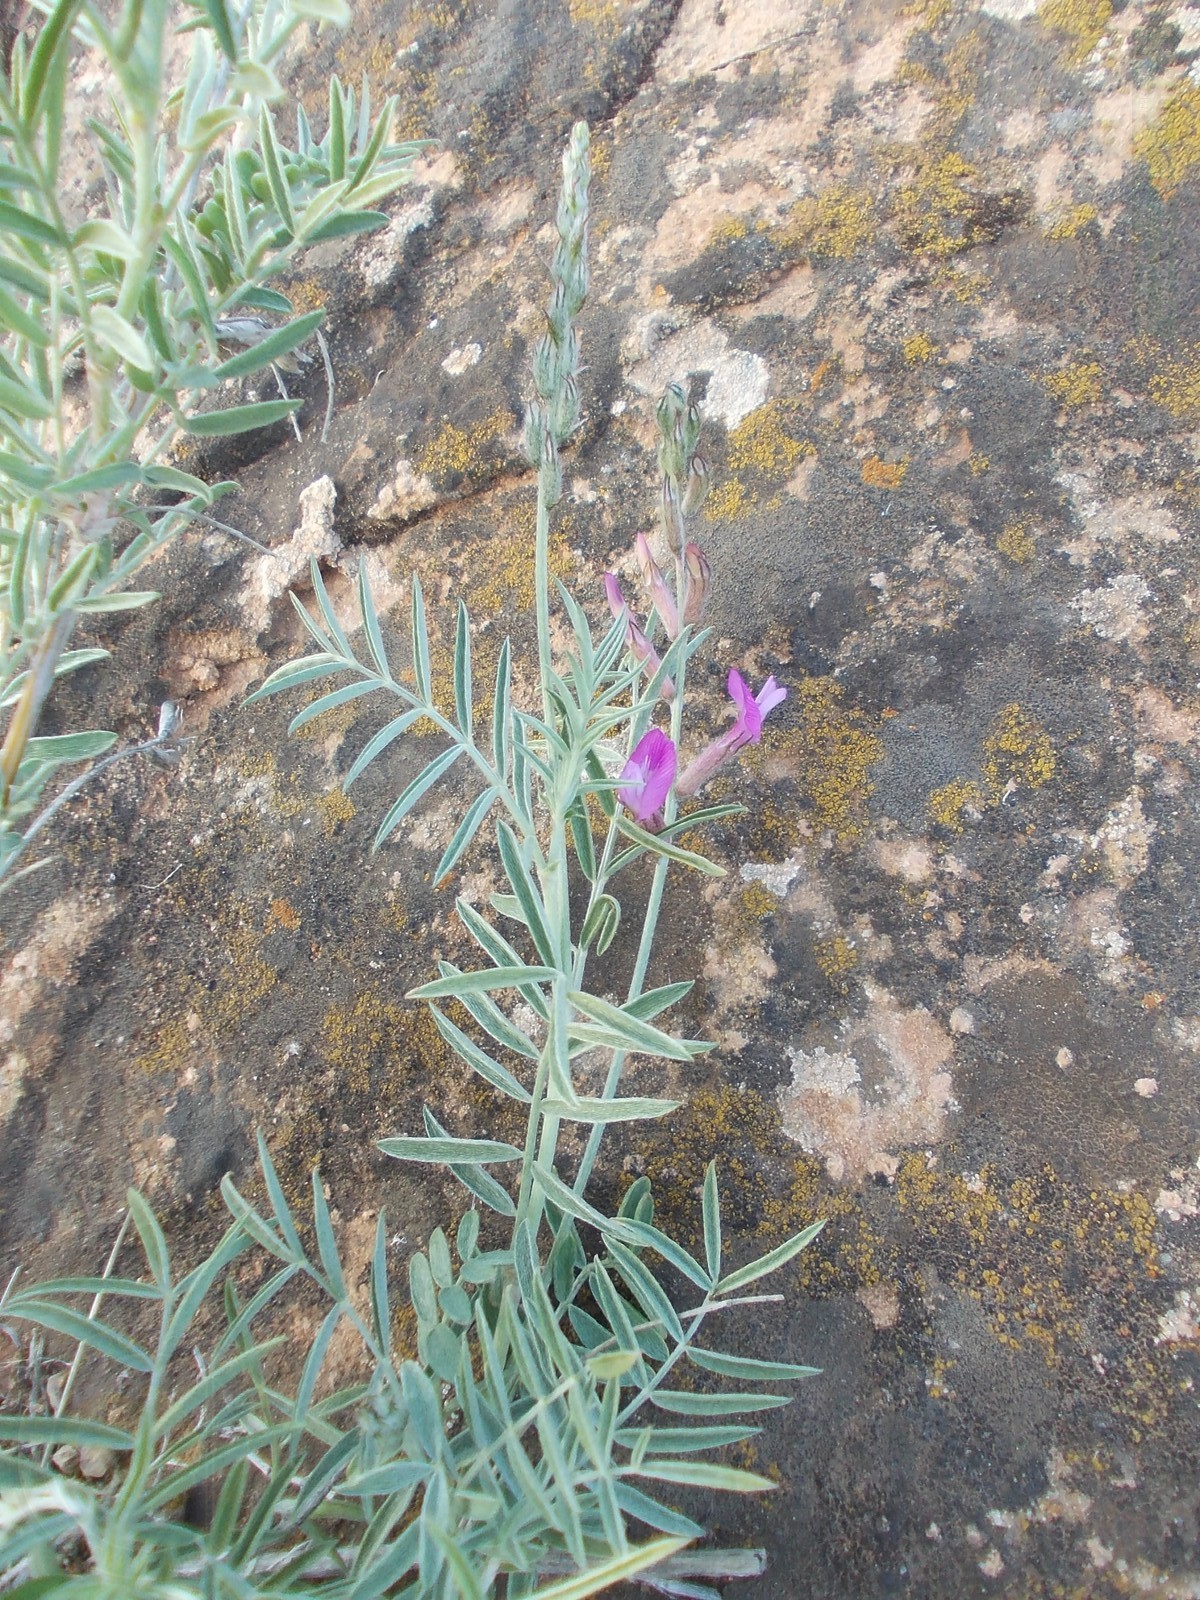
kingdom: Plantae
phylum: Tracheophyta
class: Magnoliopsida
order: Fabales
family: Fabaceae
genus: Astragalus
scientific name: Astragalus varius
